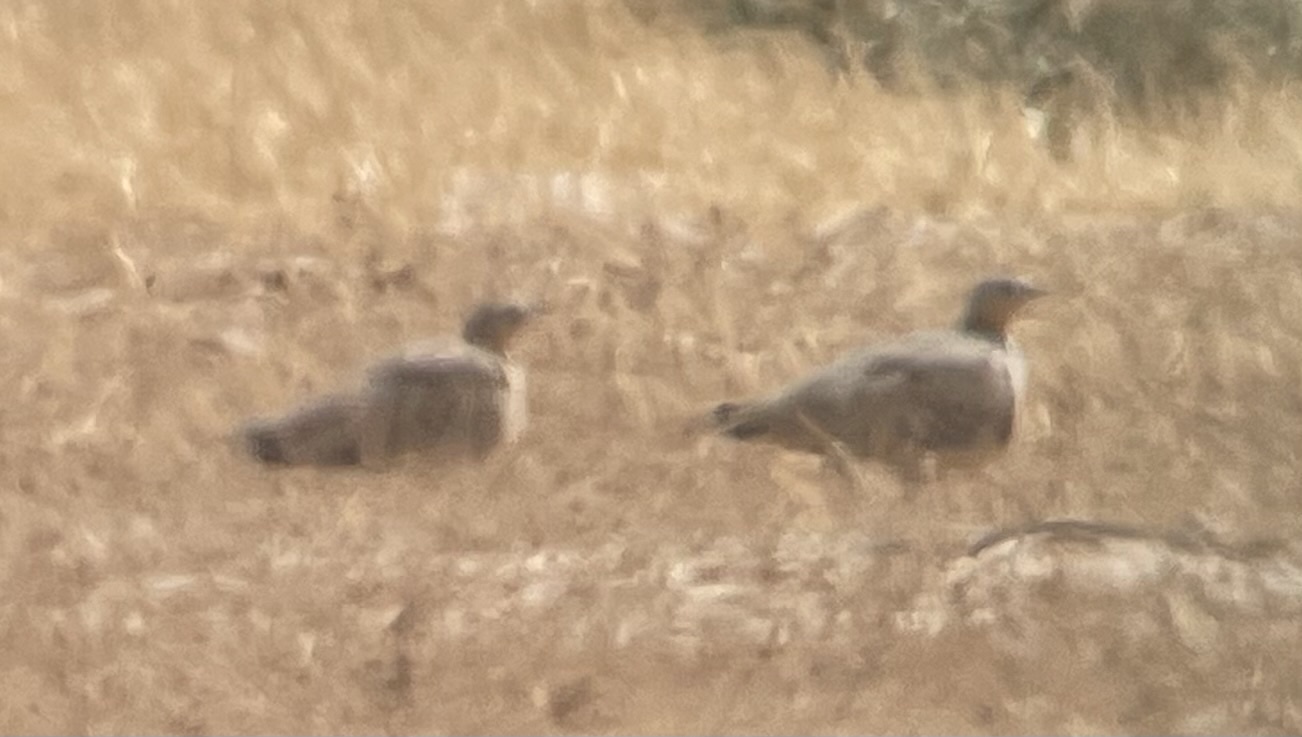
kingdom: Animalia
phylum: Chordata
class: Aves
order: Pteroclidiformes
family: Pteroclididae
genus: Pterocles
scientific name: Pterocles senegallus
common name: Spotted sandgrouse
